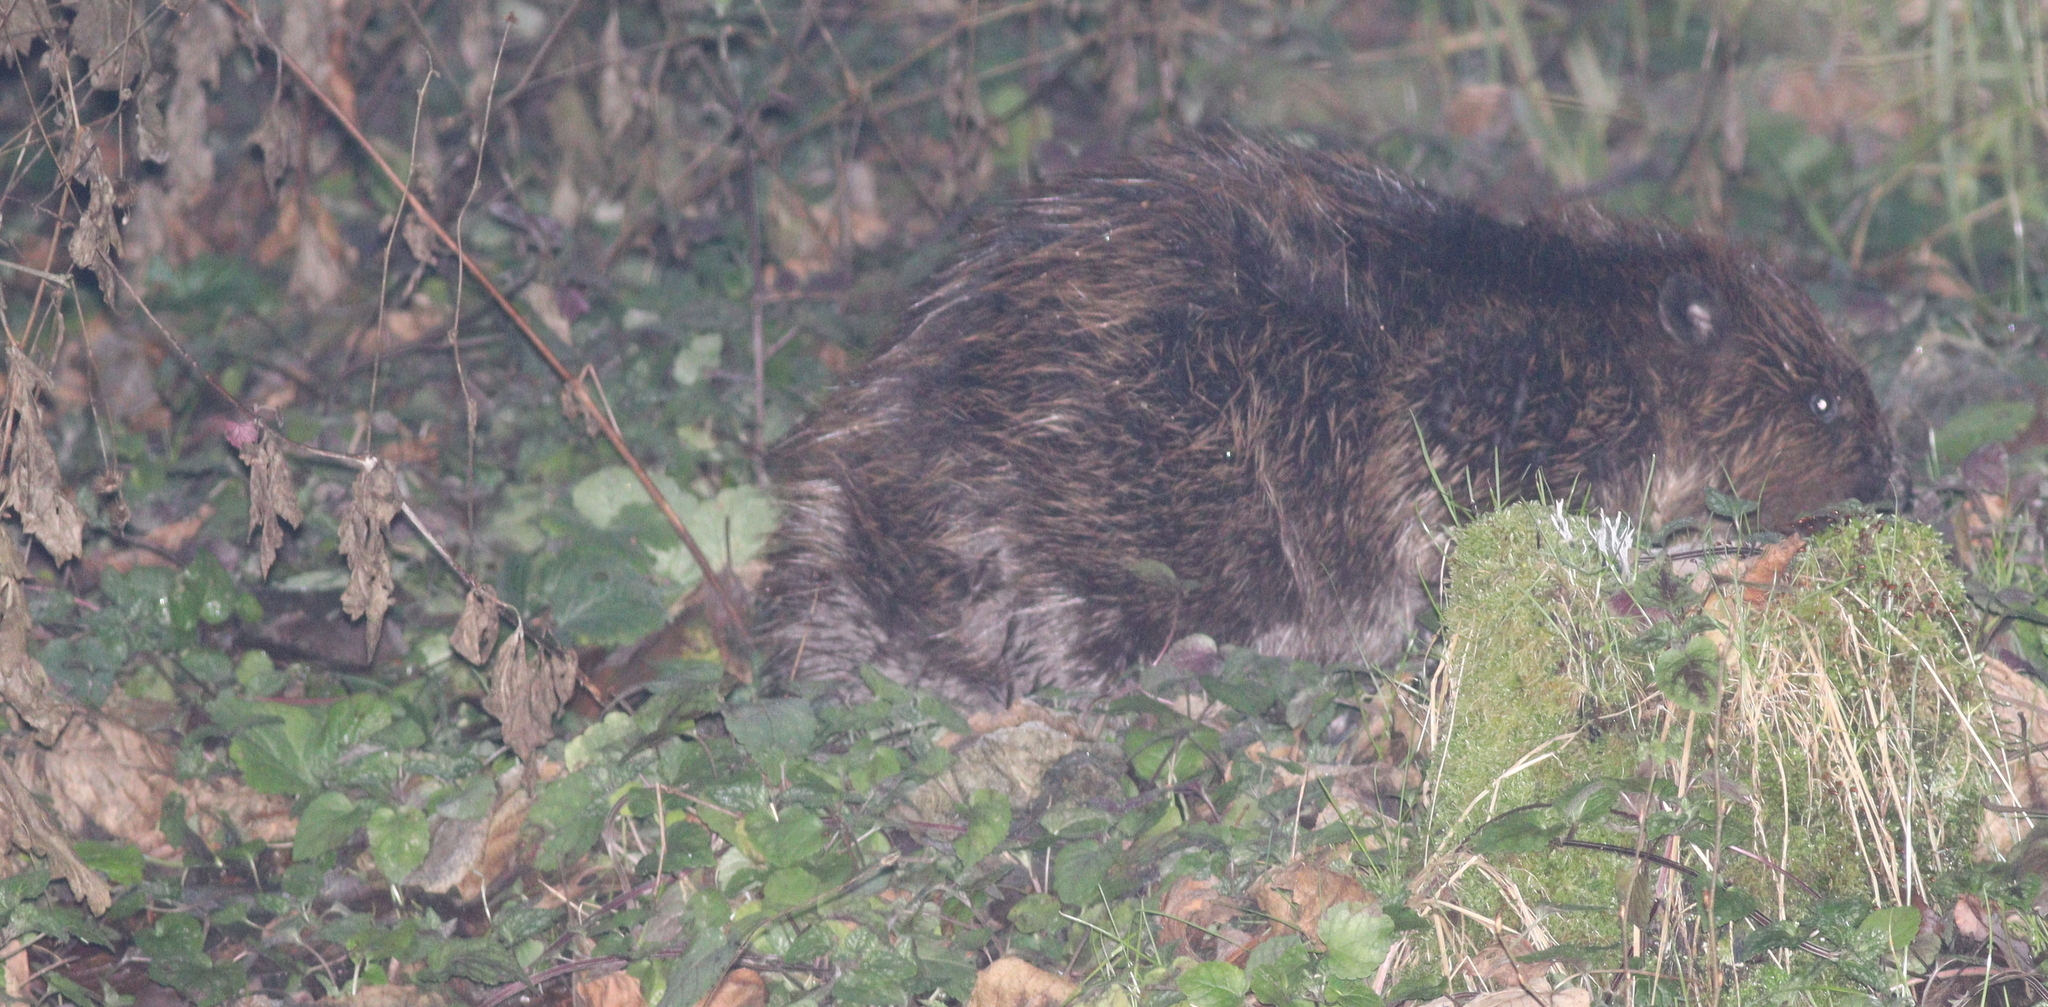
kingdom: Animalia
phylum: Chordata
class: Mammalia
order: Rodentia
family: Castoridae
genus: Castor
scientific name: Castor fiber
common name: Eurasian beaver
